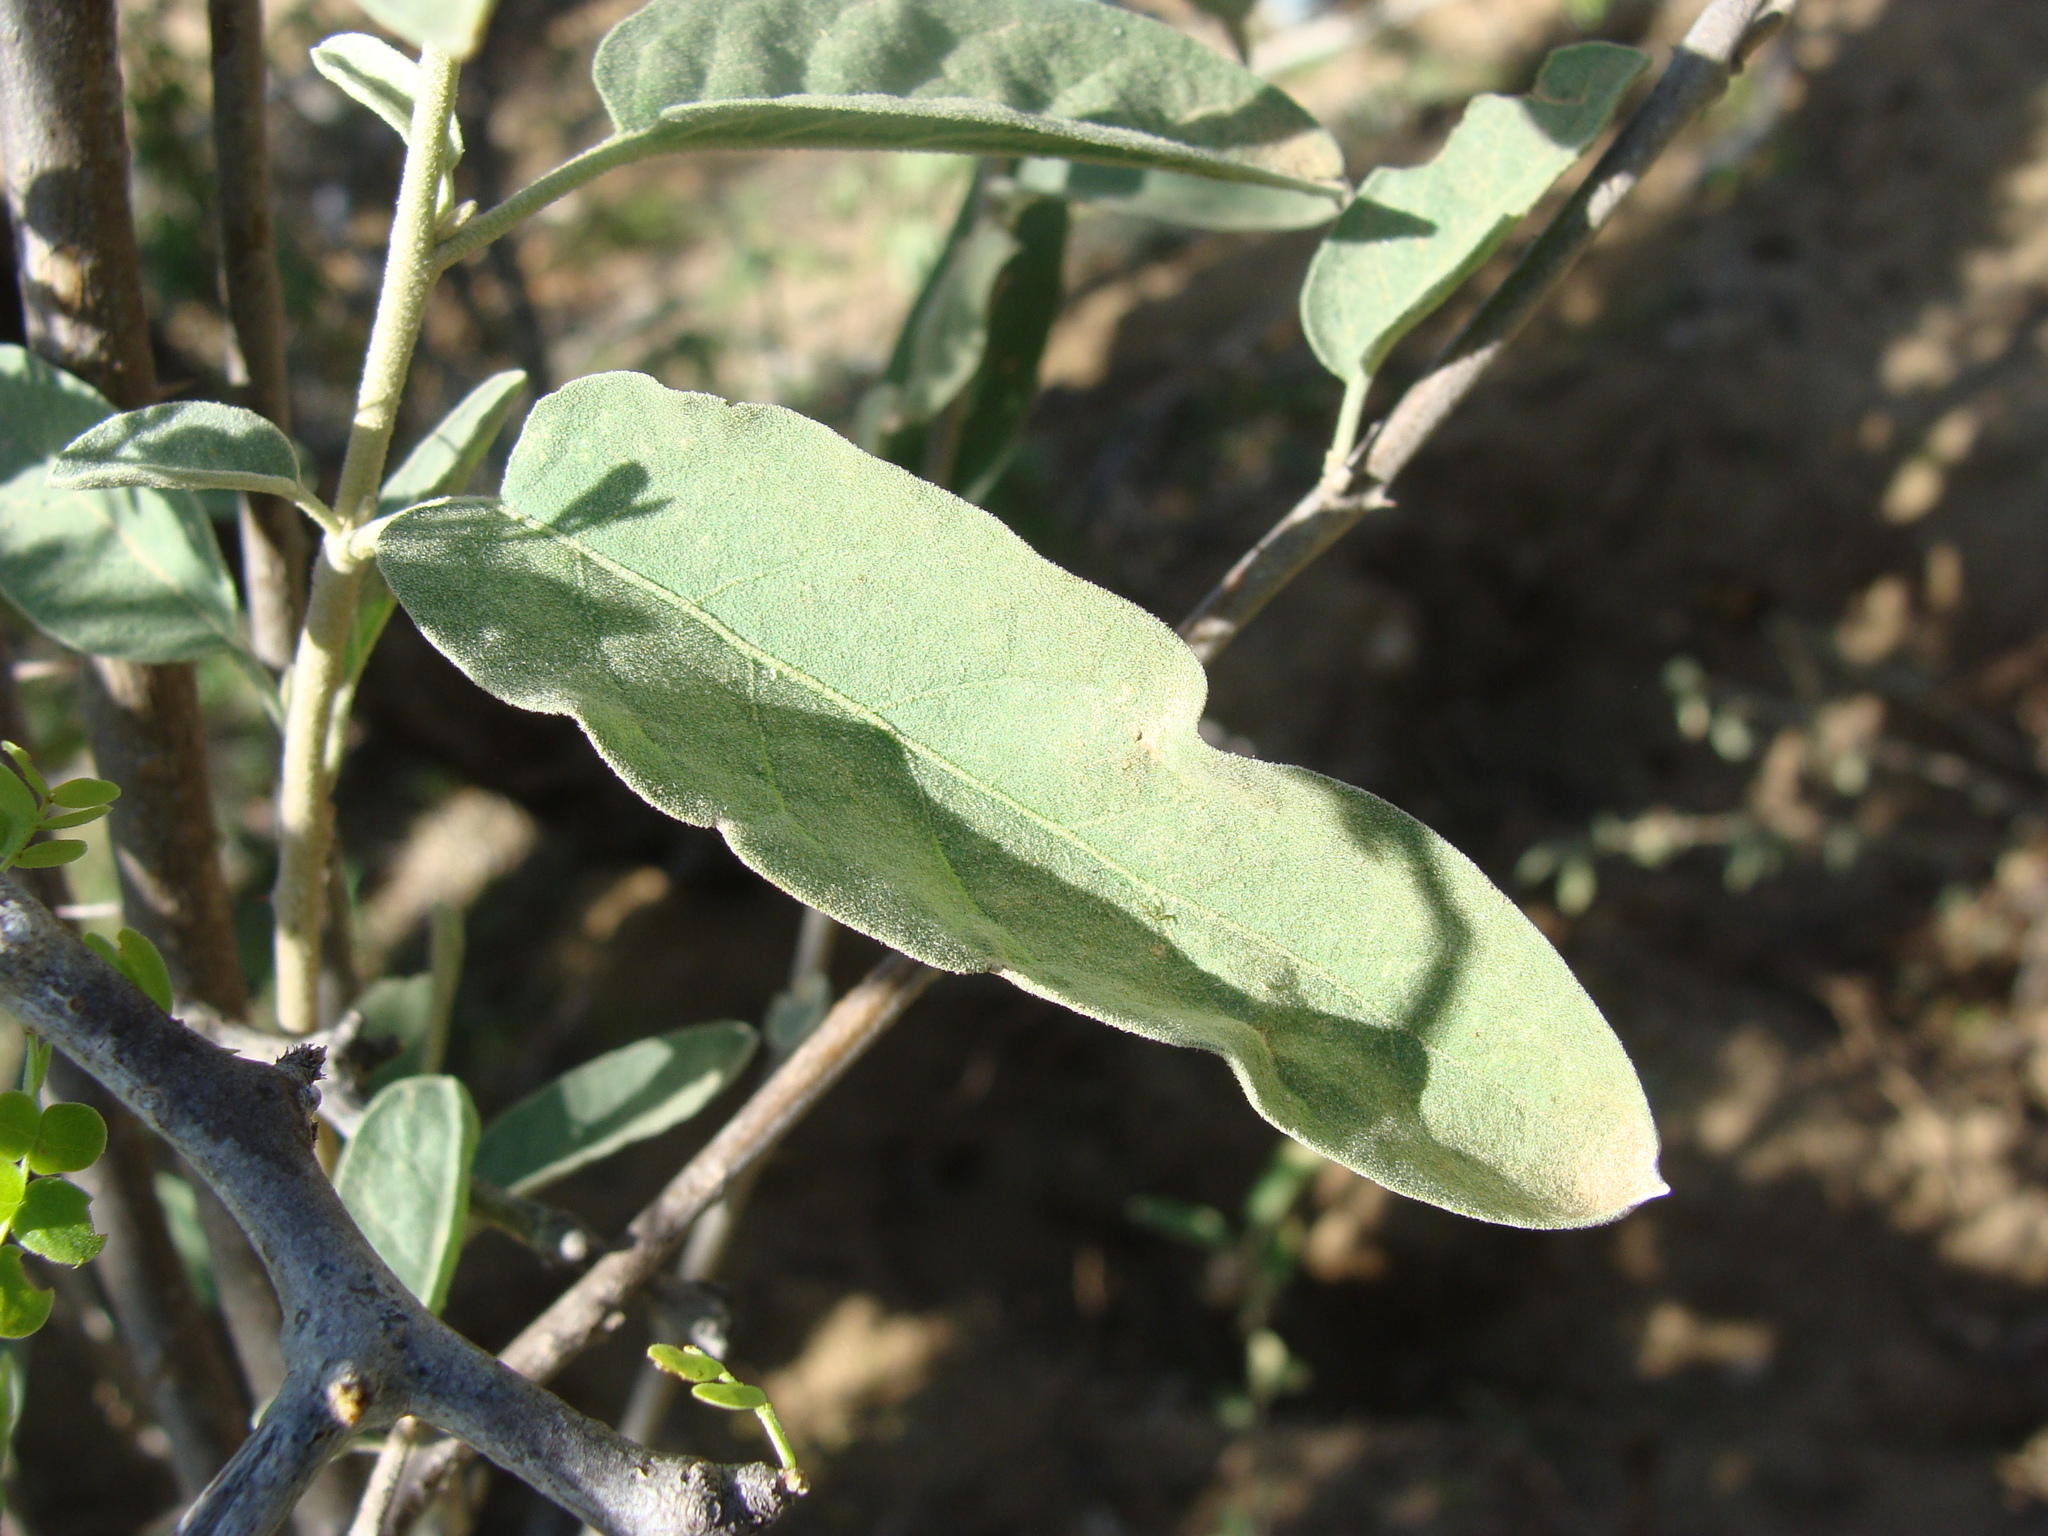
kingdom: Plantae
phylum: Tracheophyta
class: Magnoliopsida
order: Solanales
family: Solanaceae
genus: Solanum
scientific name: Solanum hindsianum
